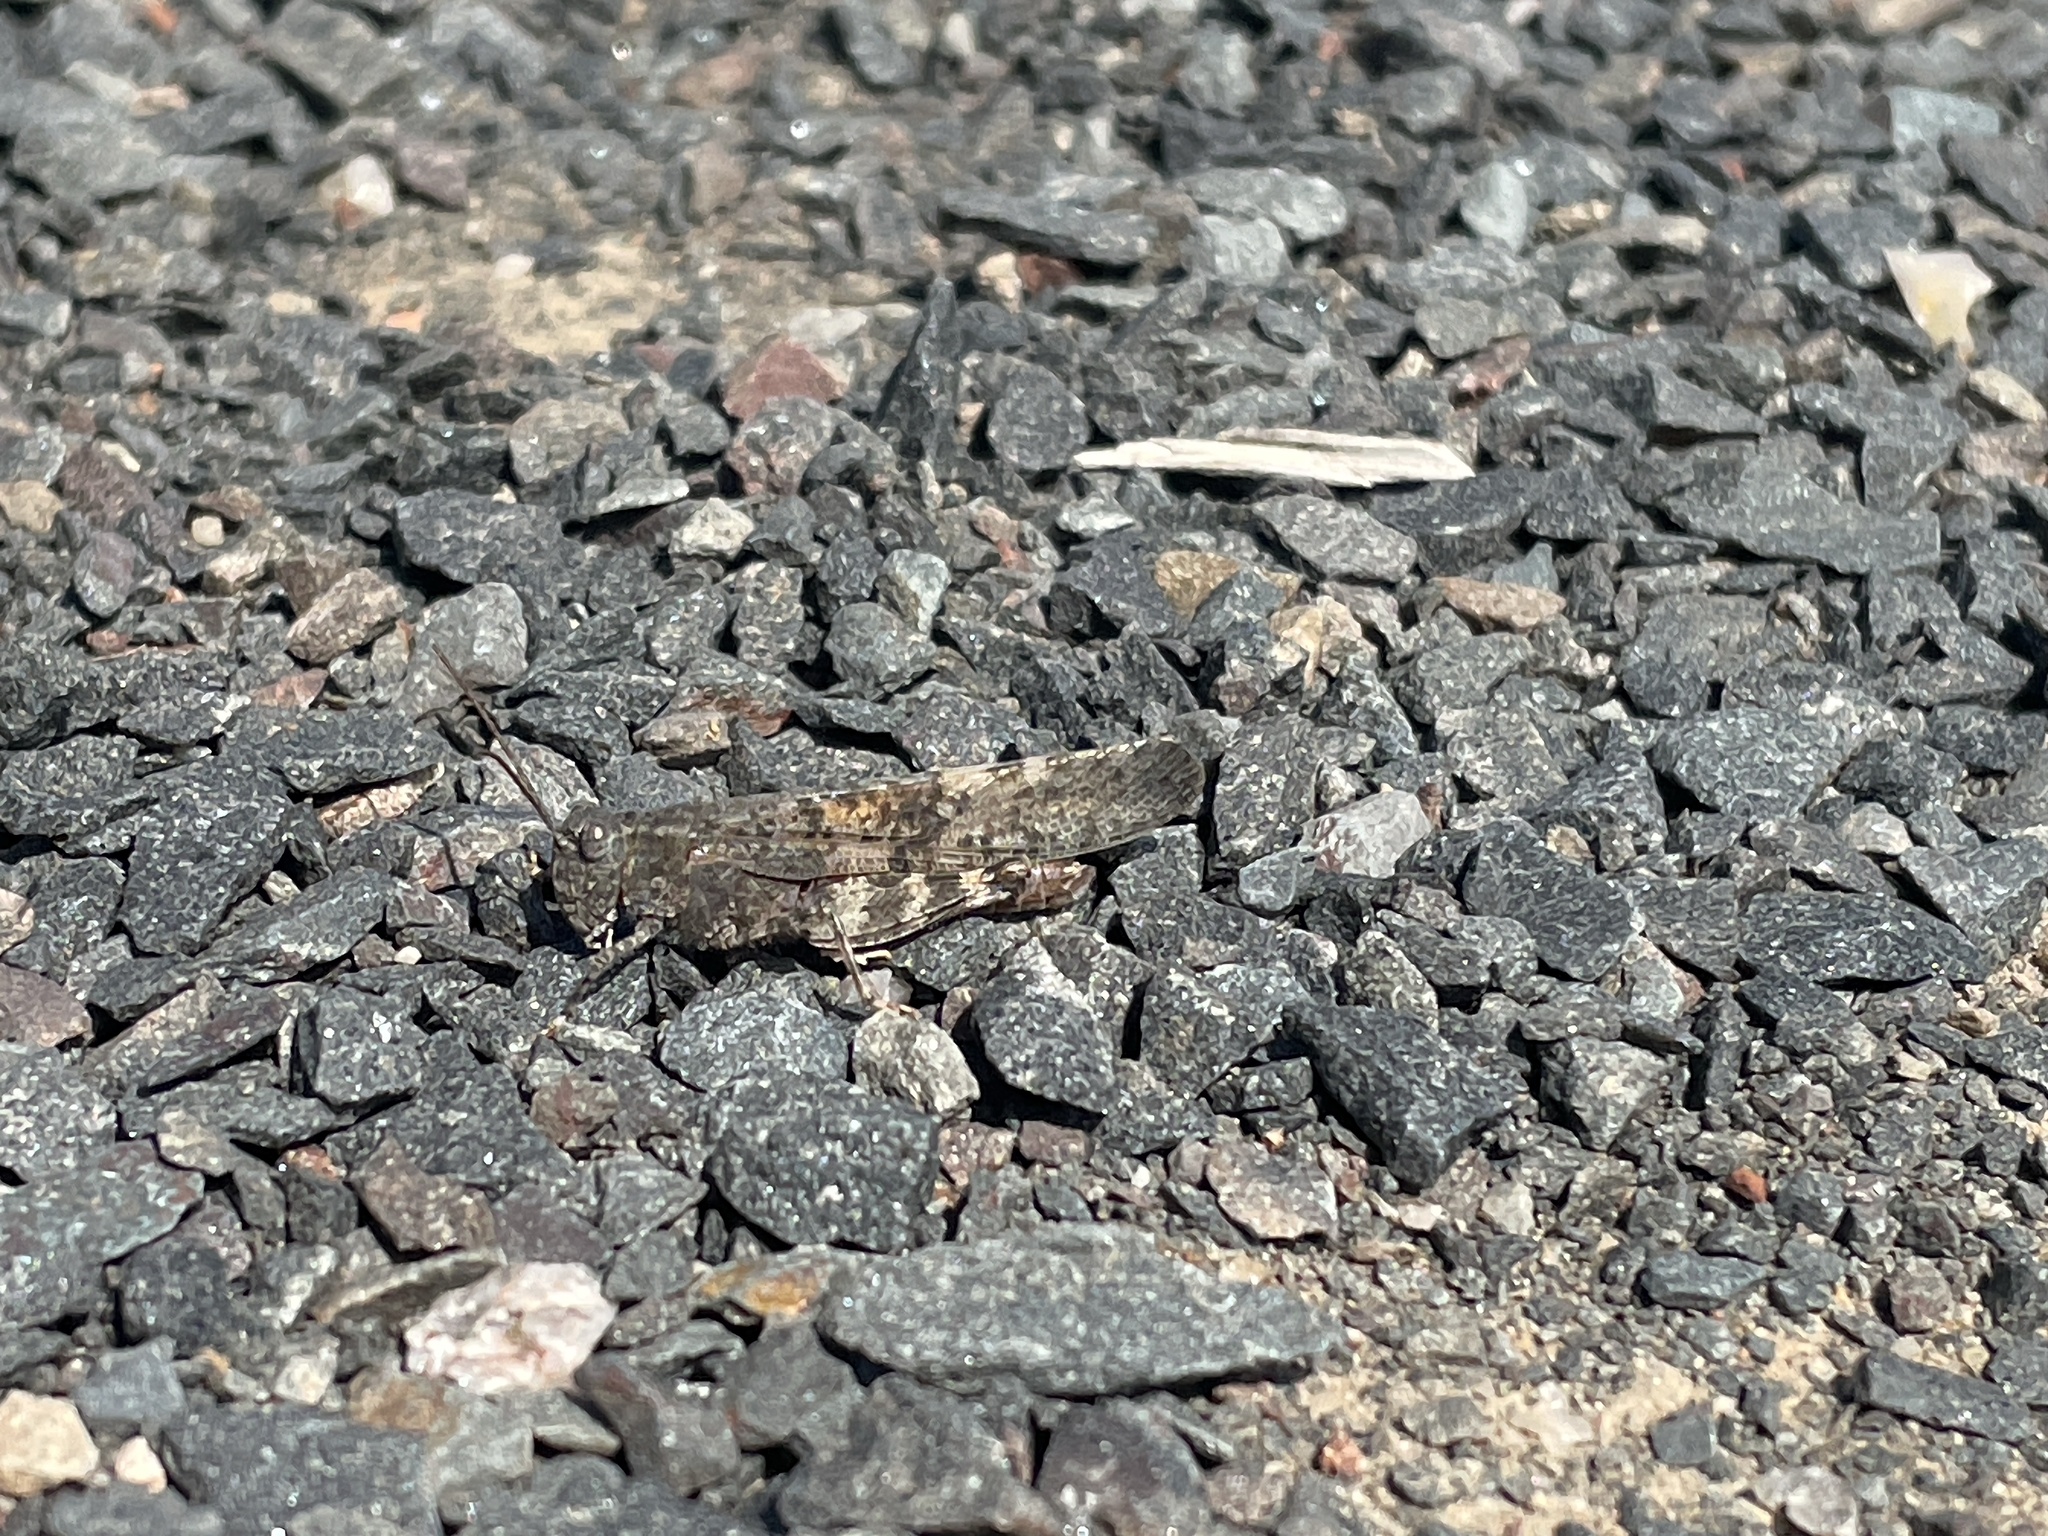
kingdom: Animalia
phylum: Arthropoda
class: Insecta
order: Orthoptera
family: Acrididae
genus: Trimerotropis
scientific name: Trimerotropis verruculata
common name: Crackling forest grasshopper
